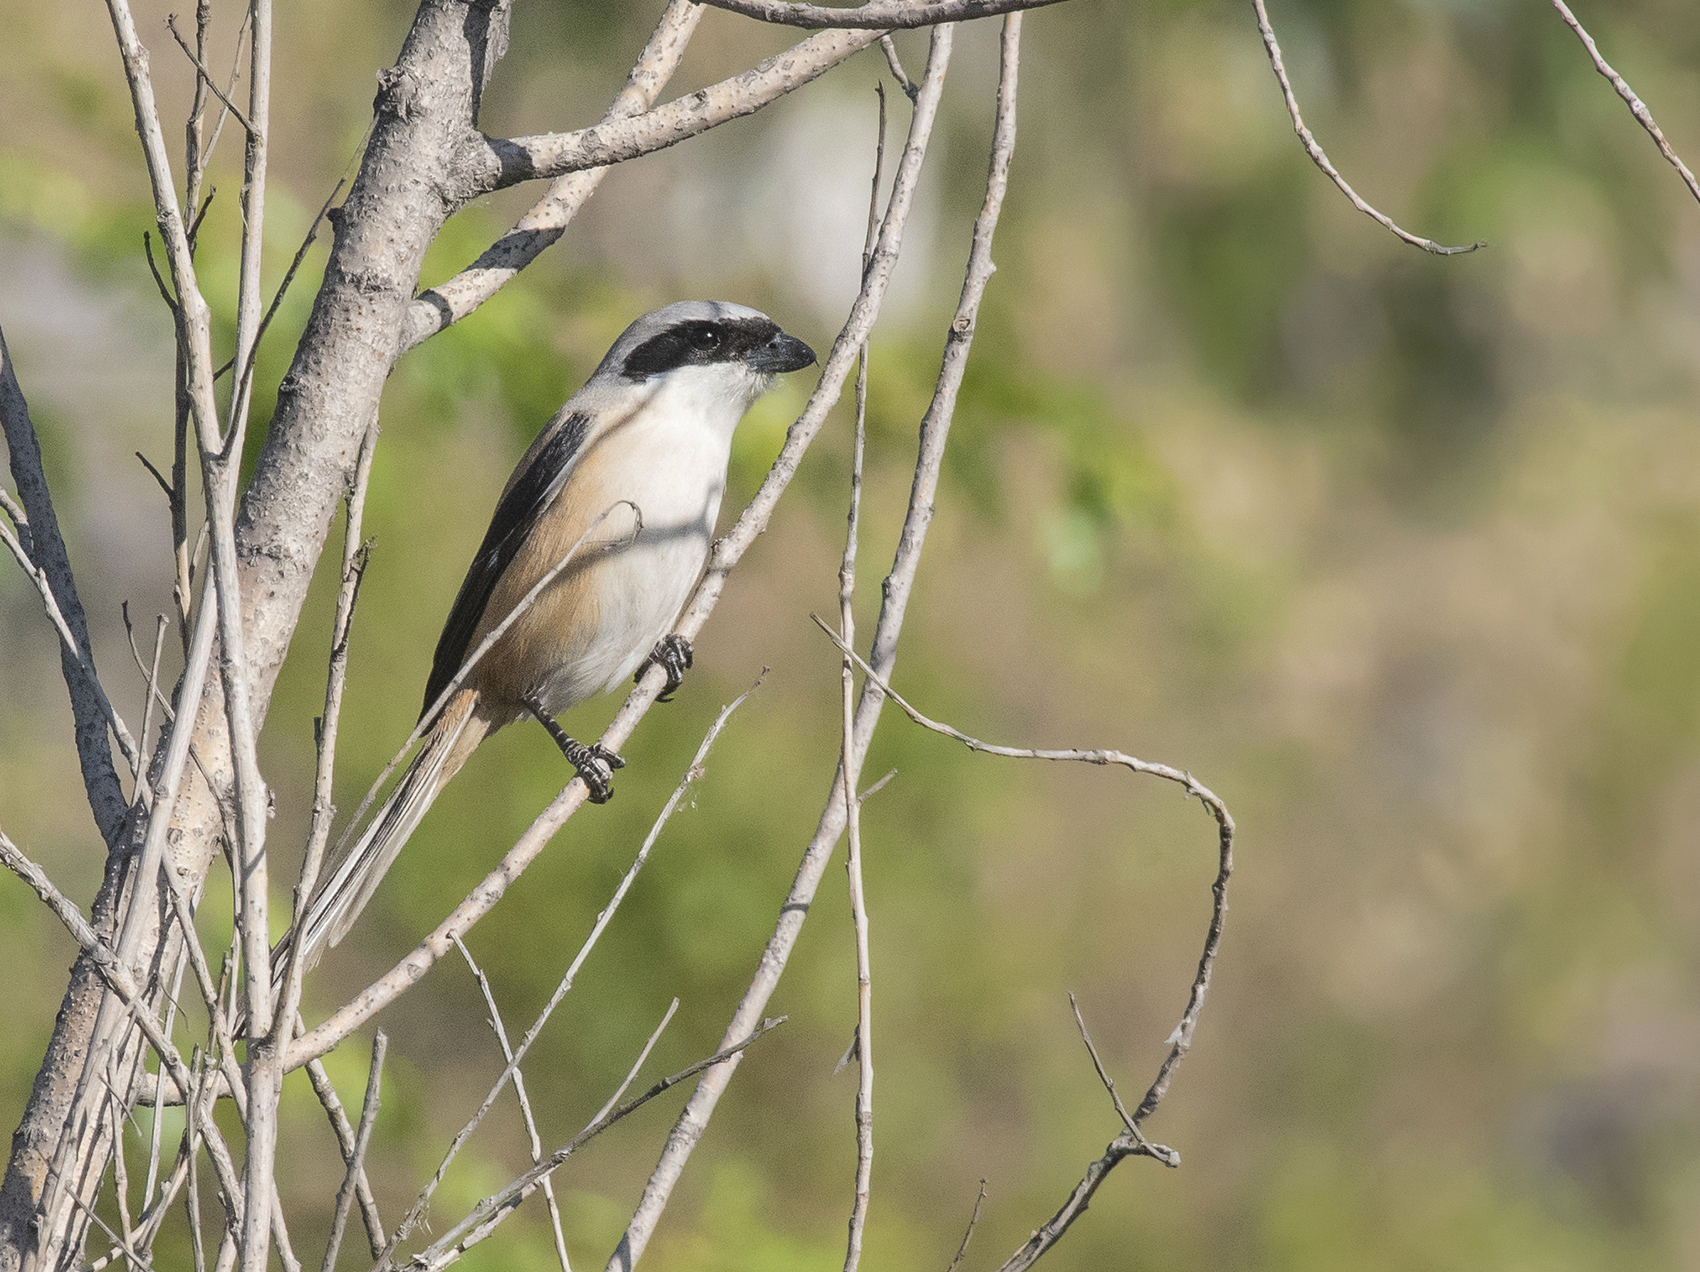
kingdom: Animalia
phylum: Chordata
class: Aves
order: Passeriformes
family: Laniidae
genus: Lanius
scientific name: Lanius schach
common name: Long-tailed shrike
